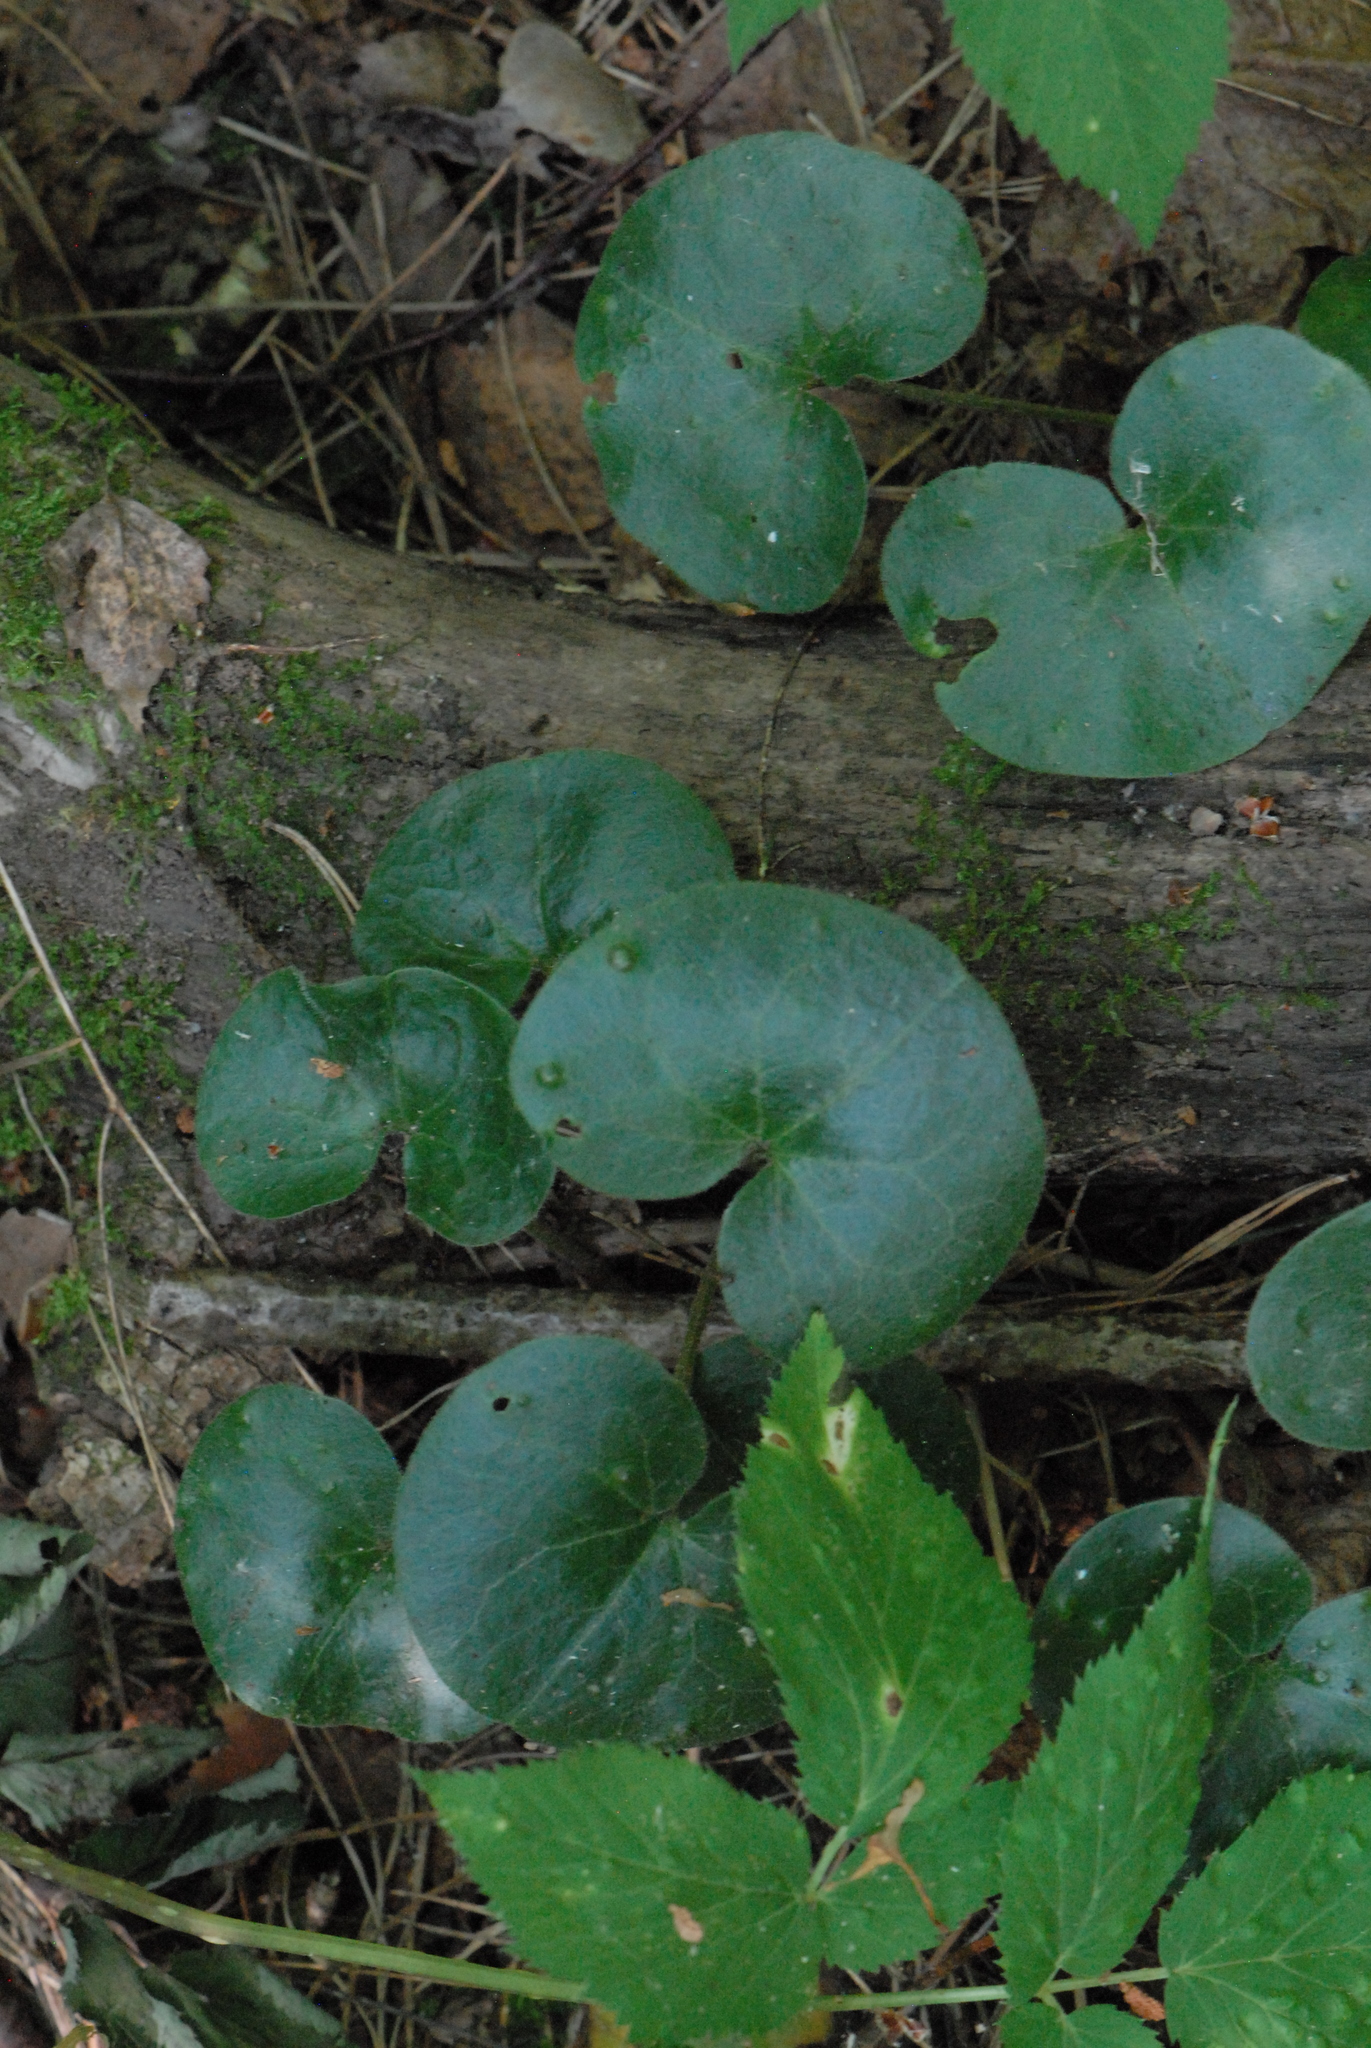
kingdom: Plantae
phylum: Tracheophyta
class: Magnoliopsida
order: Piperales
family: Aristolochiaceae
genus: Asarum
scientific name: Asarum europaeum
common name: Asarabacca
